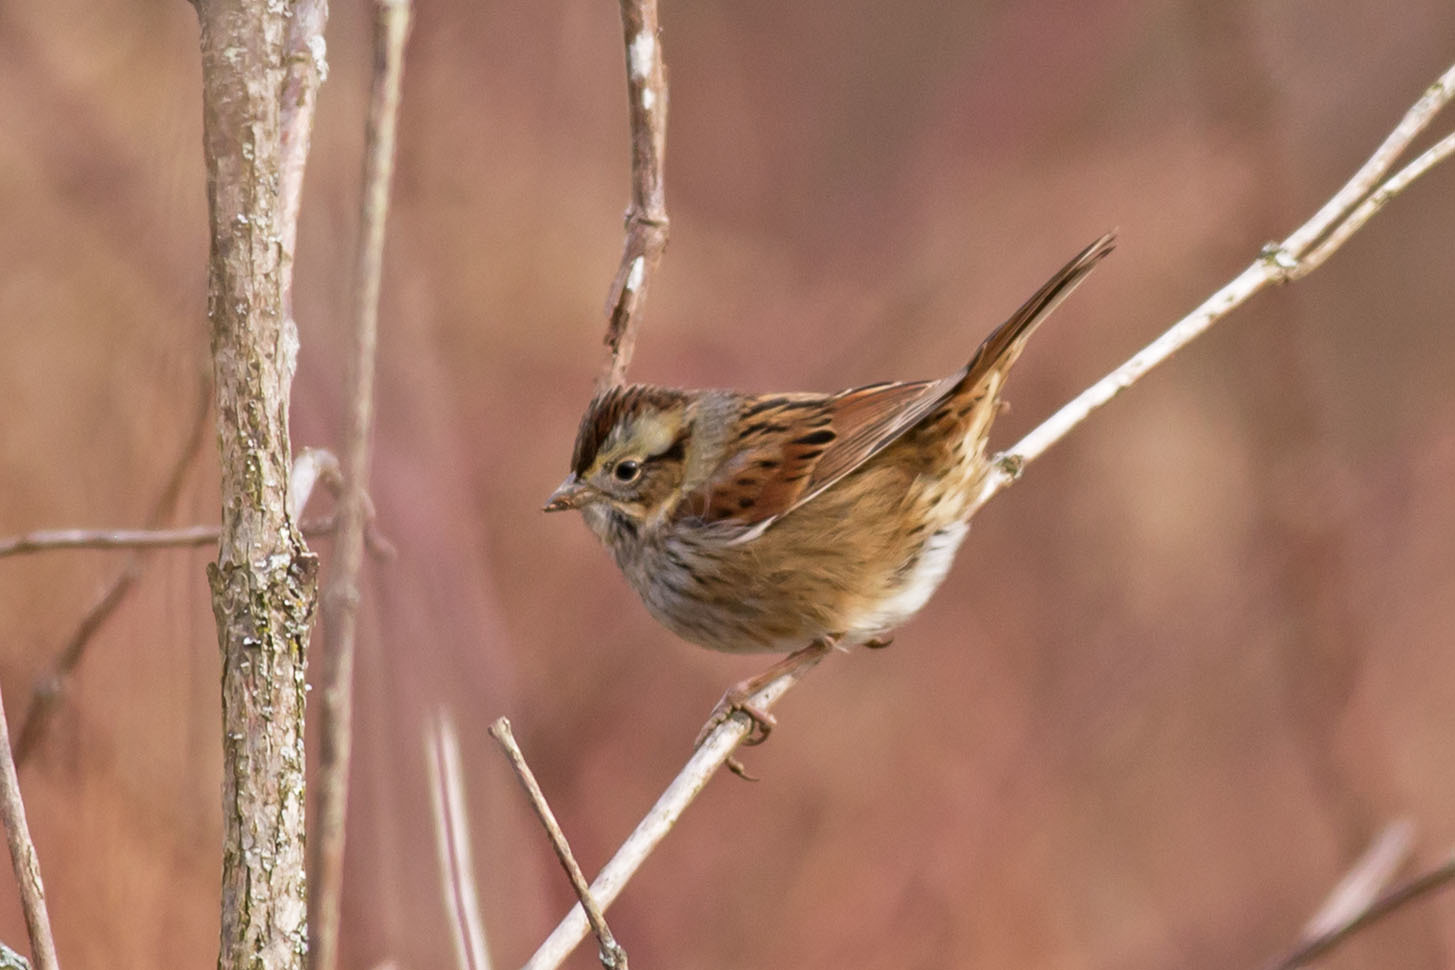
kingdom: Animalia
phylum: Chordata
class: Aves
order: Passeriformes
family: Passerellidae
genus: Melospiza
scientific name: Melospiza georgiana
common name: Swamp sparrow
